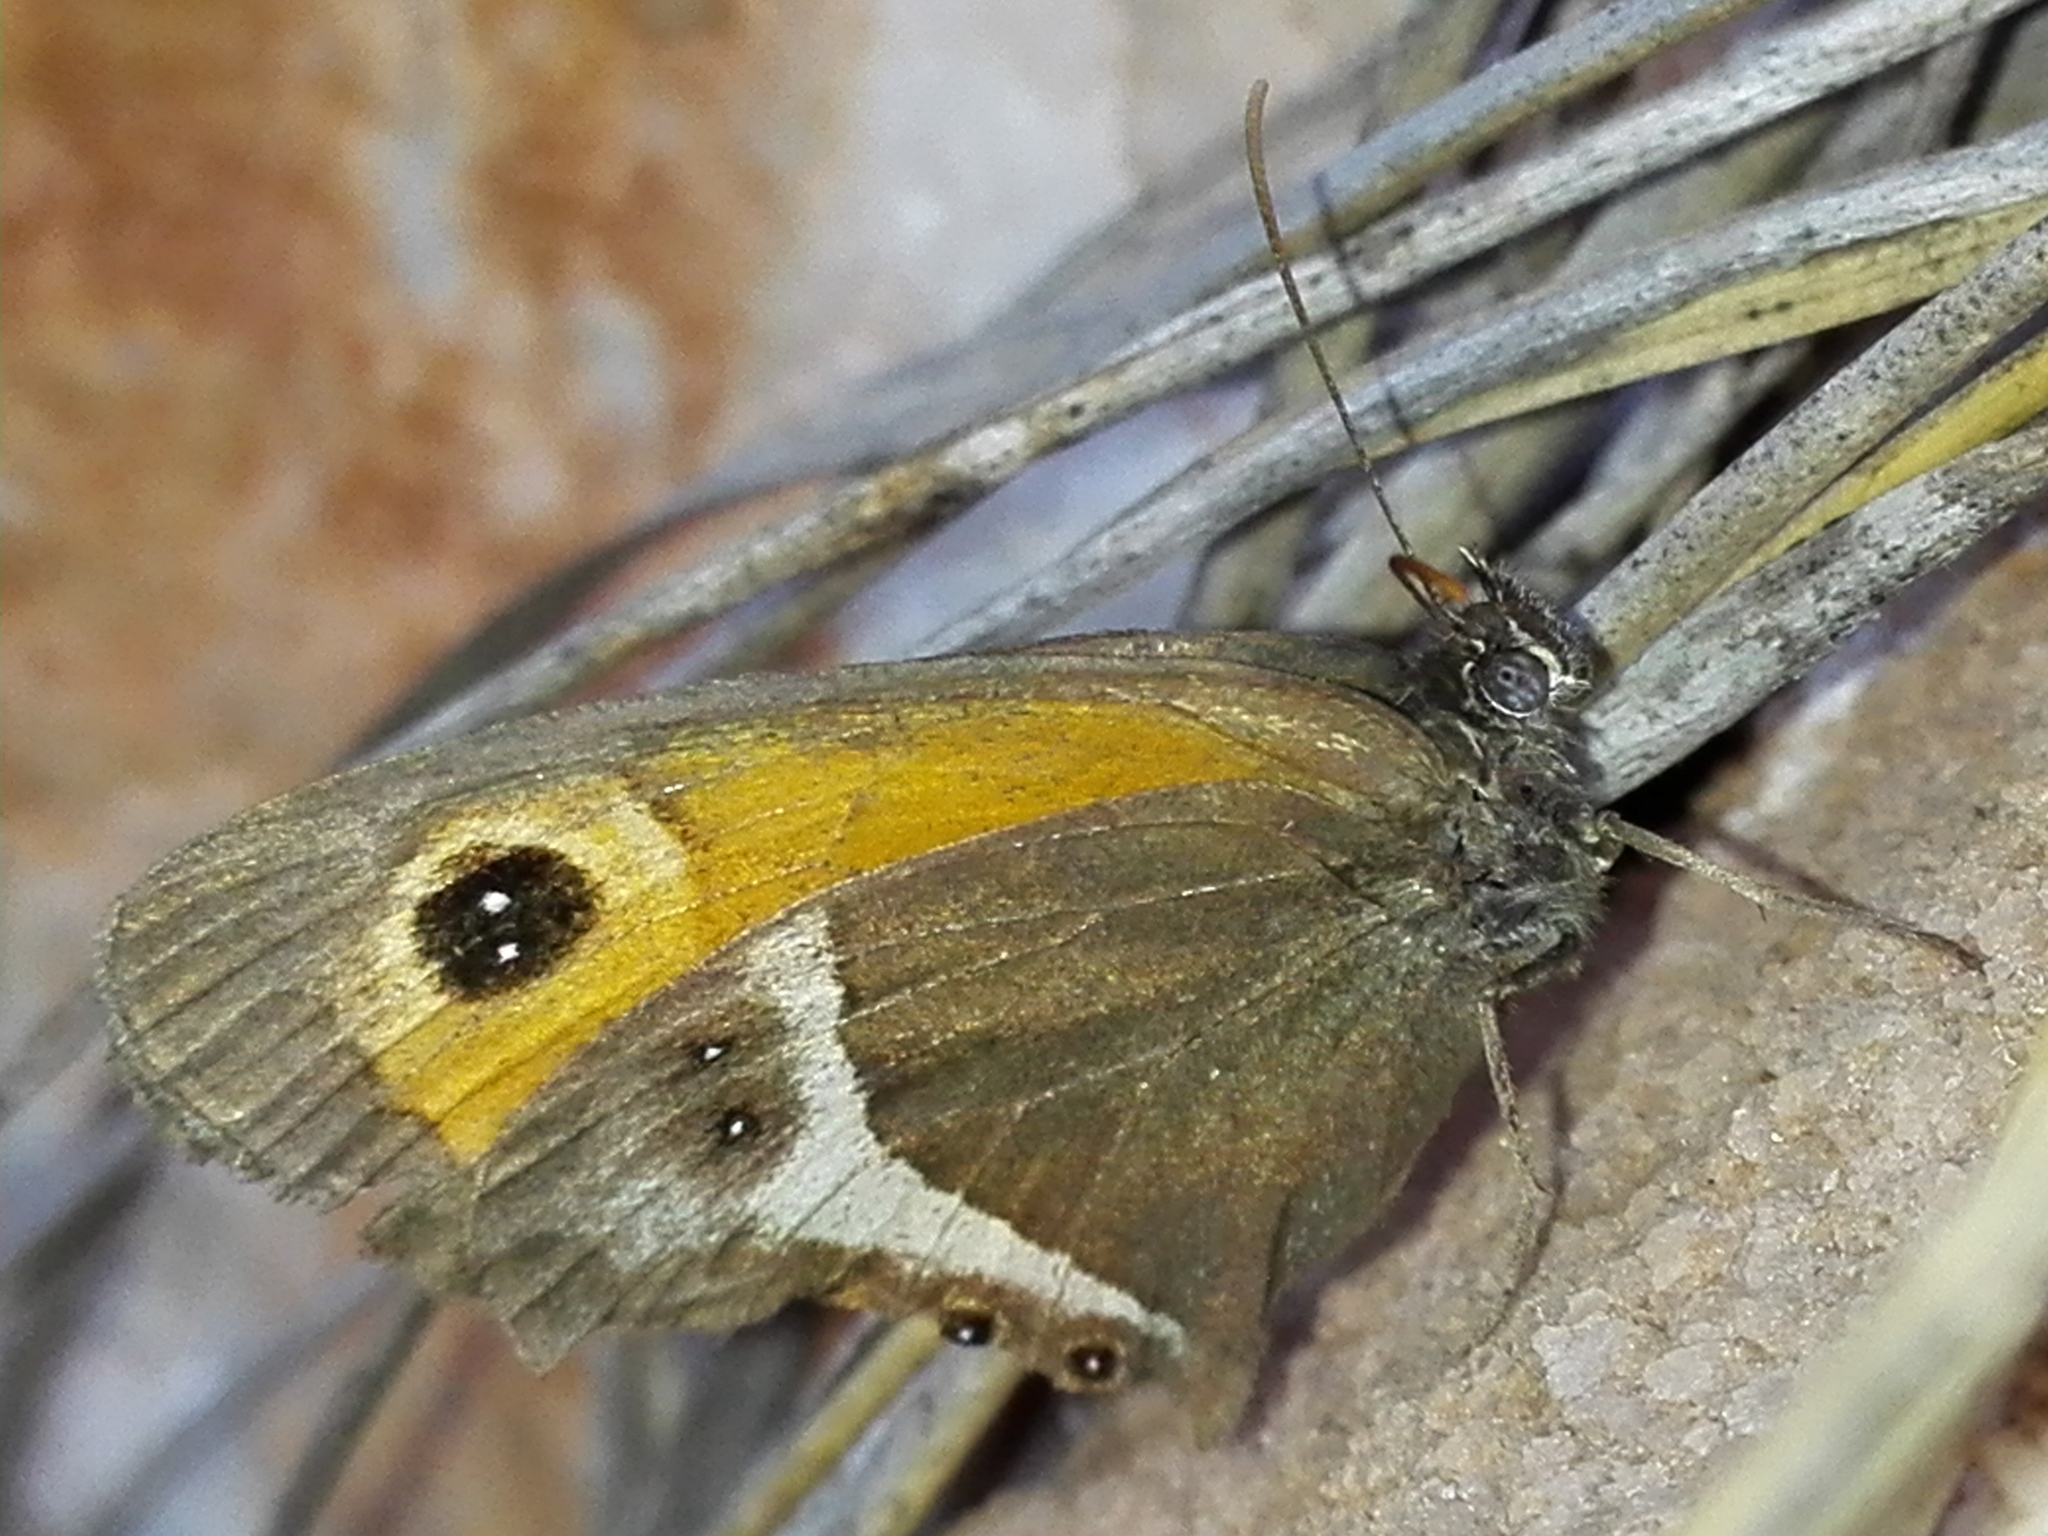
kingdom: Animalia
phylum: Arthropoda
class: Insecta
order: Lepidoptera
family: Nymphalidae
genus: Pyronia
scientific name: Pyronia bathseba
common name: Spanish gatekeeper
